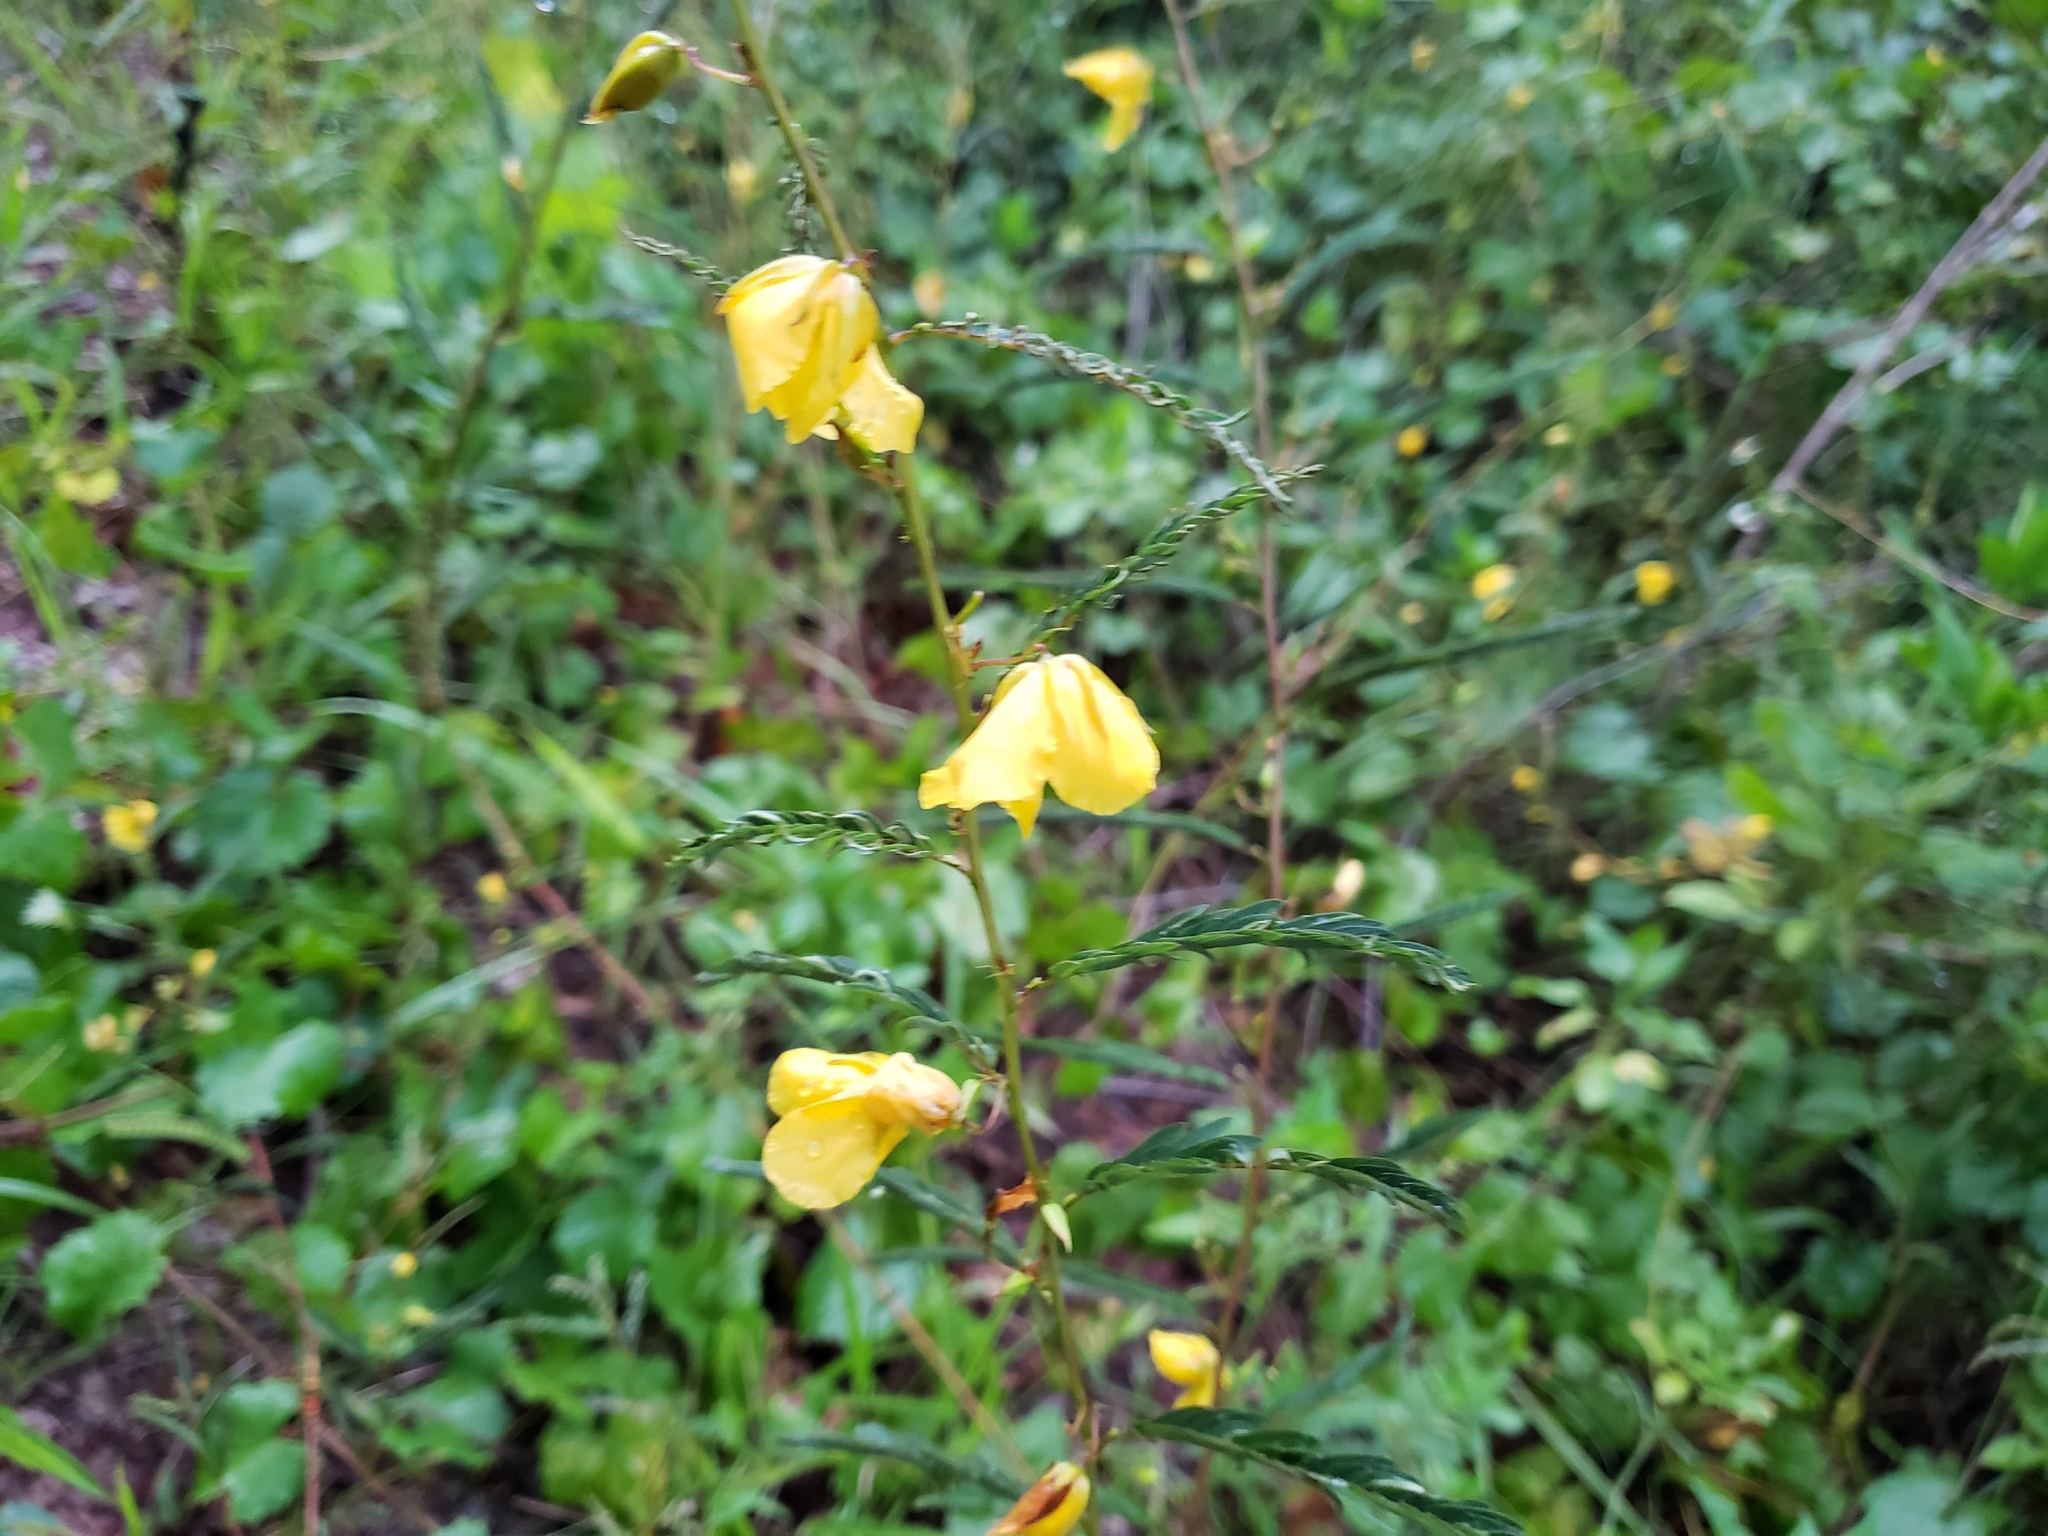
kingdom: Plantae
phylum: Tracheophyta
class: Magnoliopsida
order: Fabales
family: Fabaceae
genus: Chamaecrista
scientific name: Chamaecrista fasciculata
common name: Golden cassia
